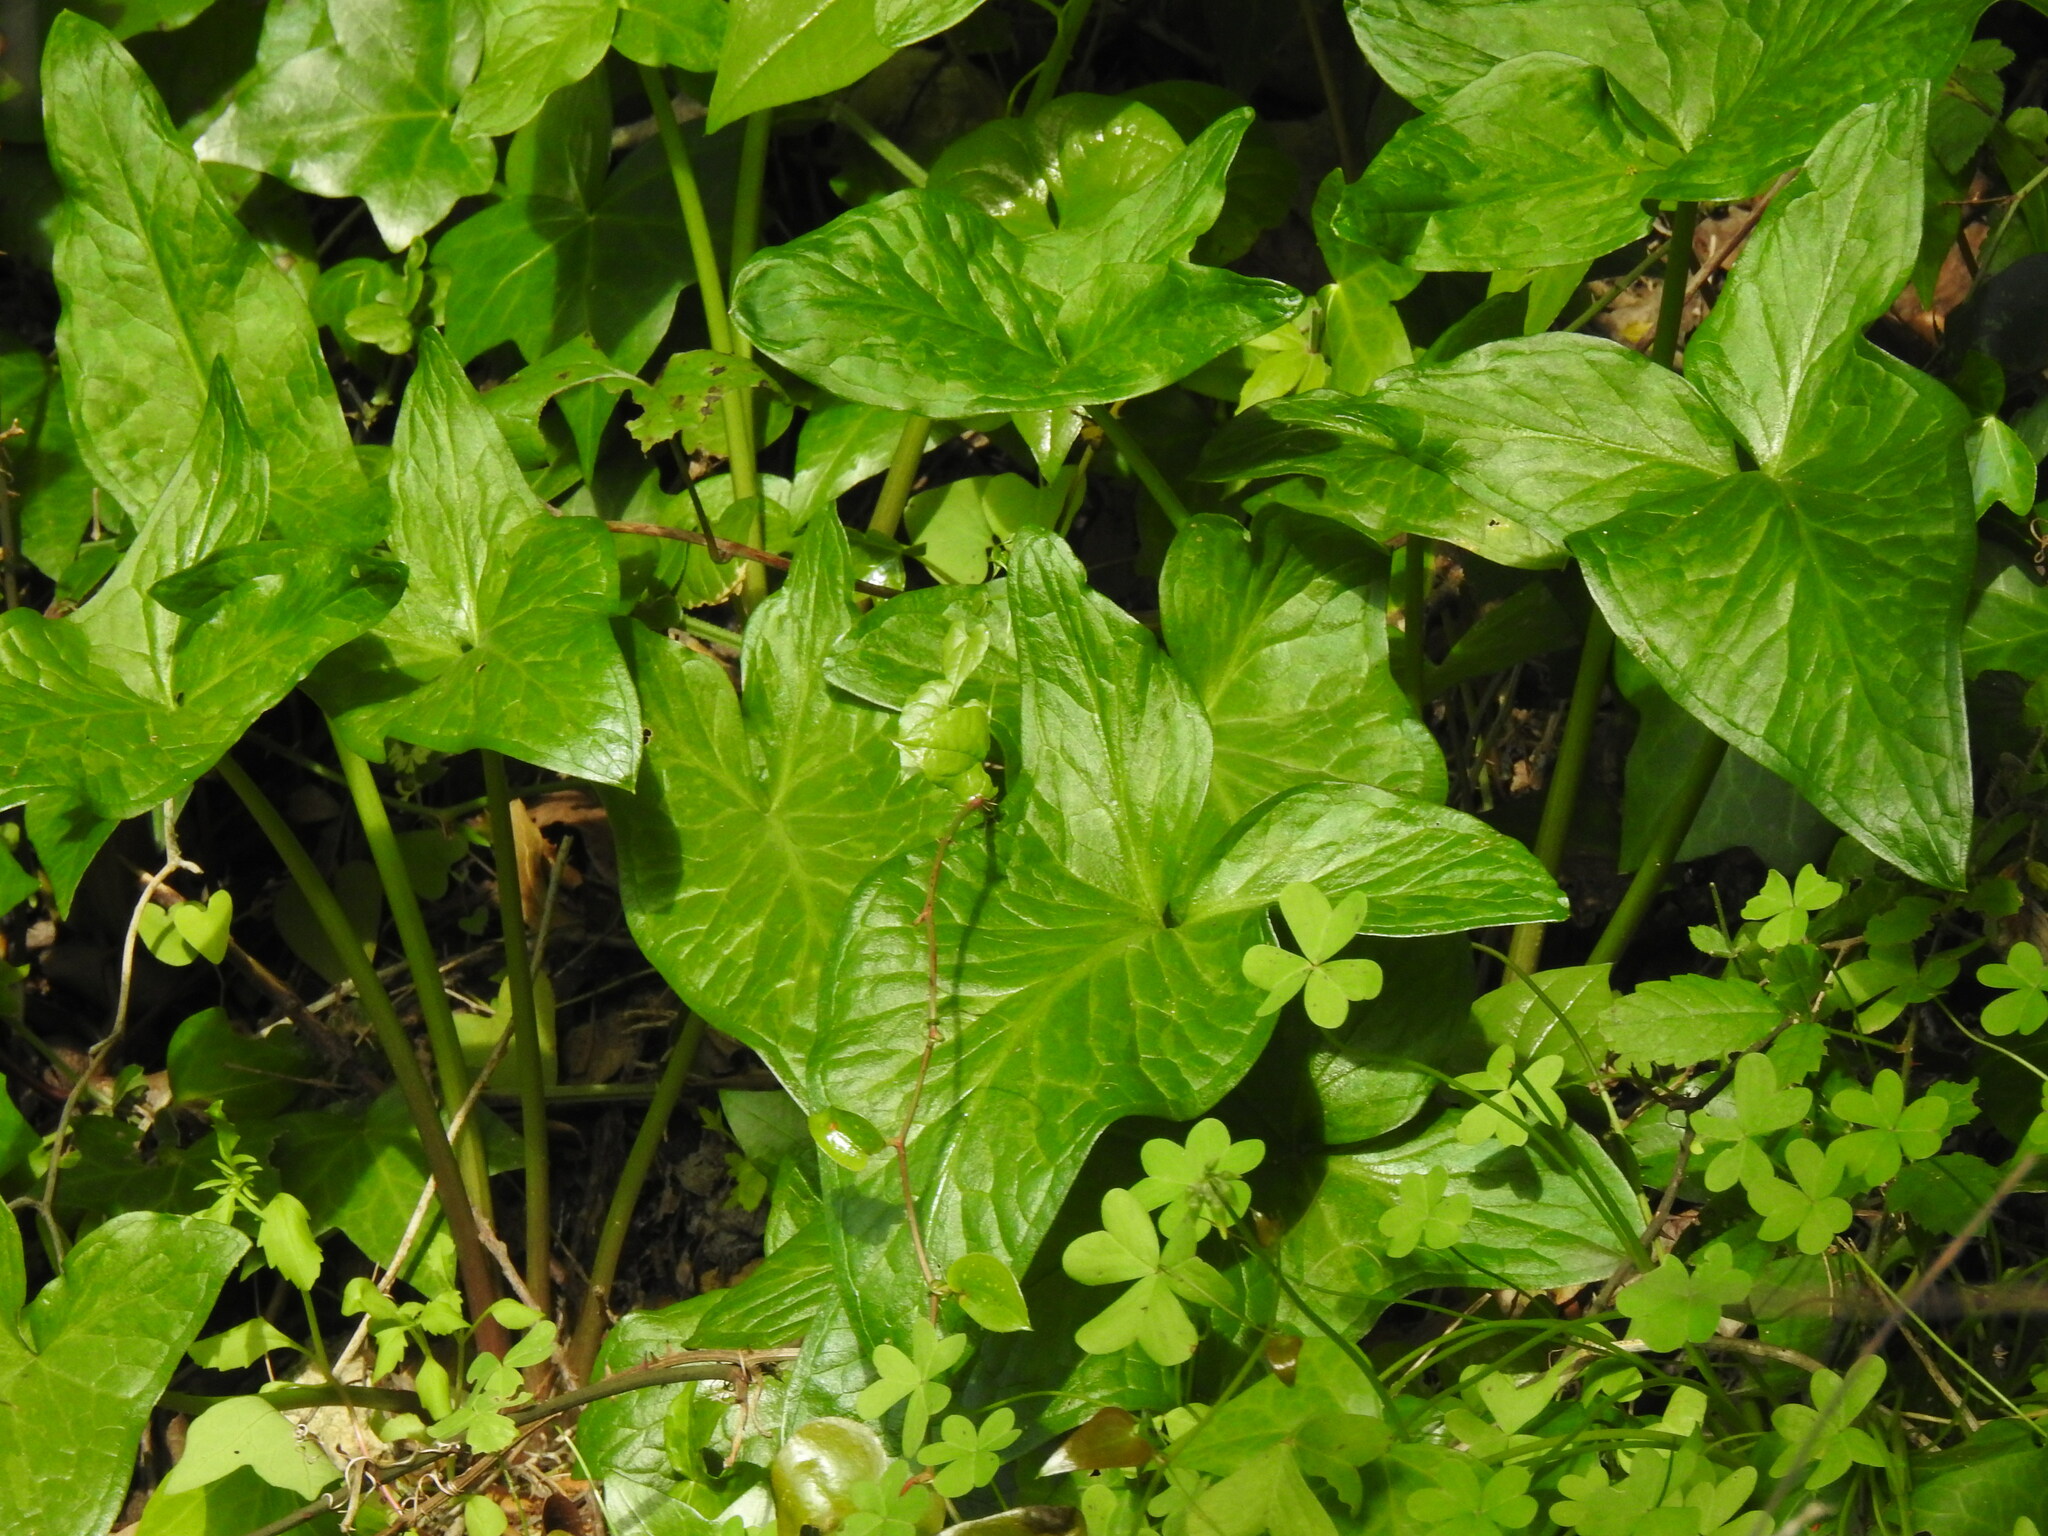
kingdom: Plantae
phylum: Tracheophyta
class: Liliopsida
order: Alismatales
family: Araceae
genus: Arum
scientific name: Arum italicum
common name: Italian lords-and-ladies
